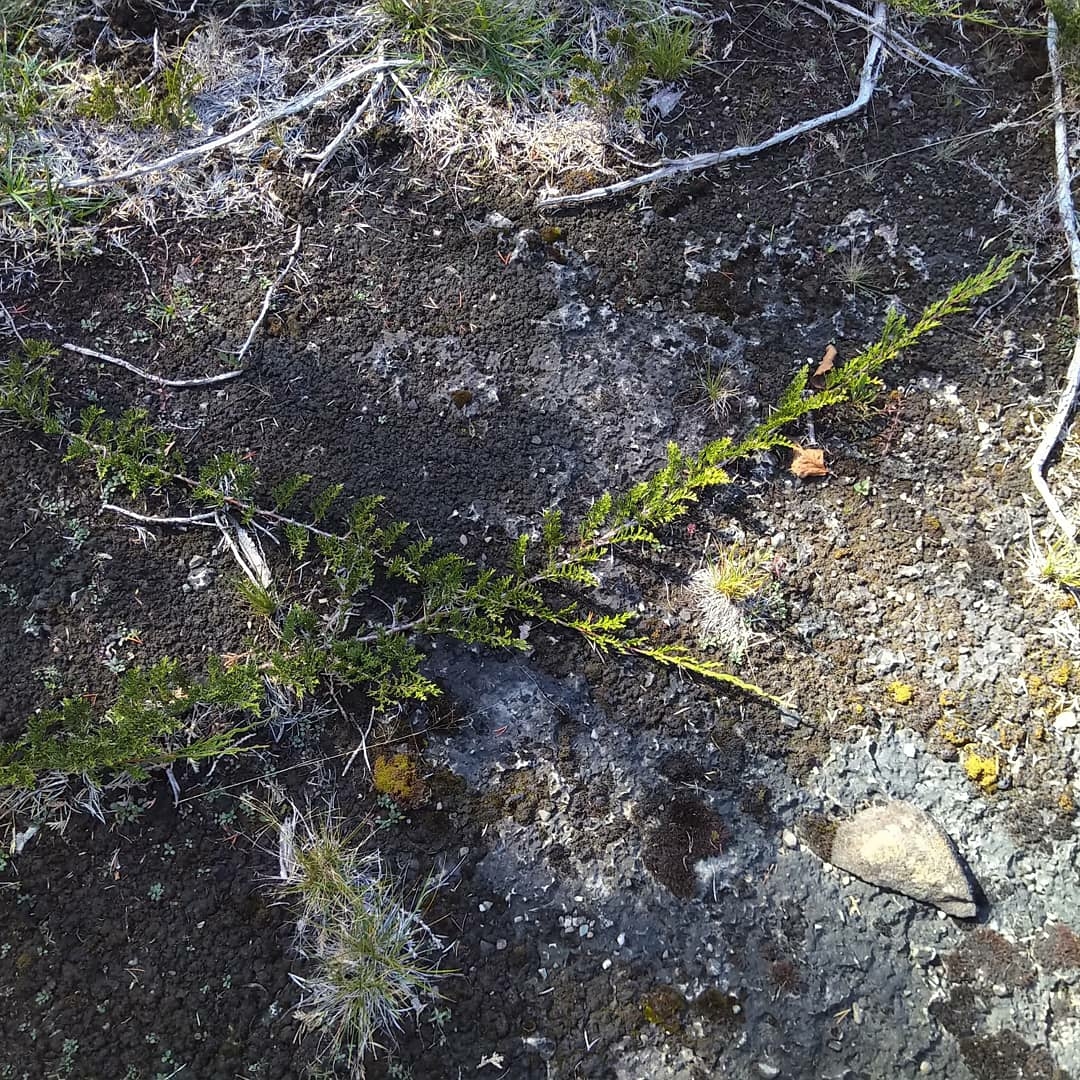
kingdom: Plantae
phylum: Tracheophyta
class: Pinopsida
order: Pinales
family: Cupressaceae
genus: Juniperus
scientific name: Juniperus horizontalis
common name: Creeping juniper
